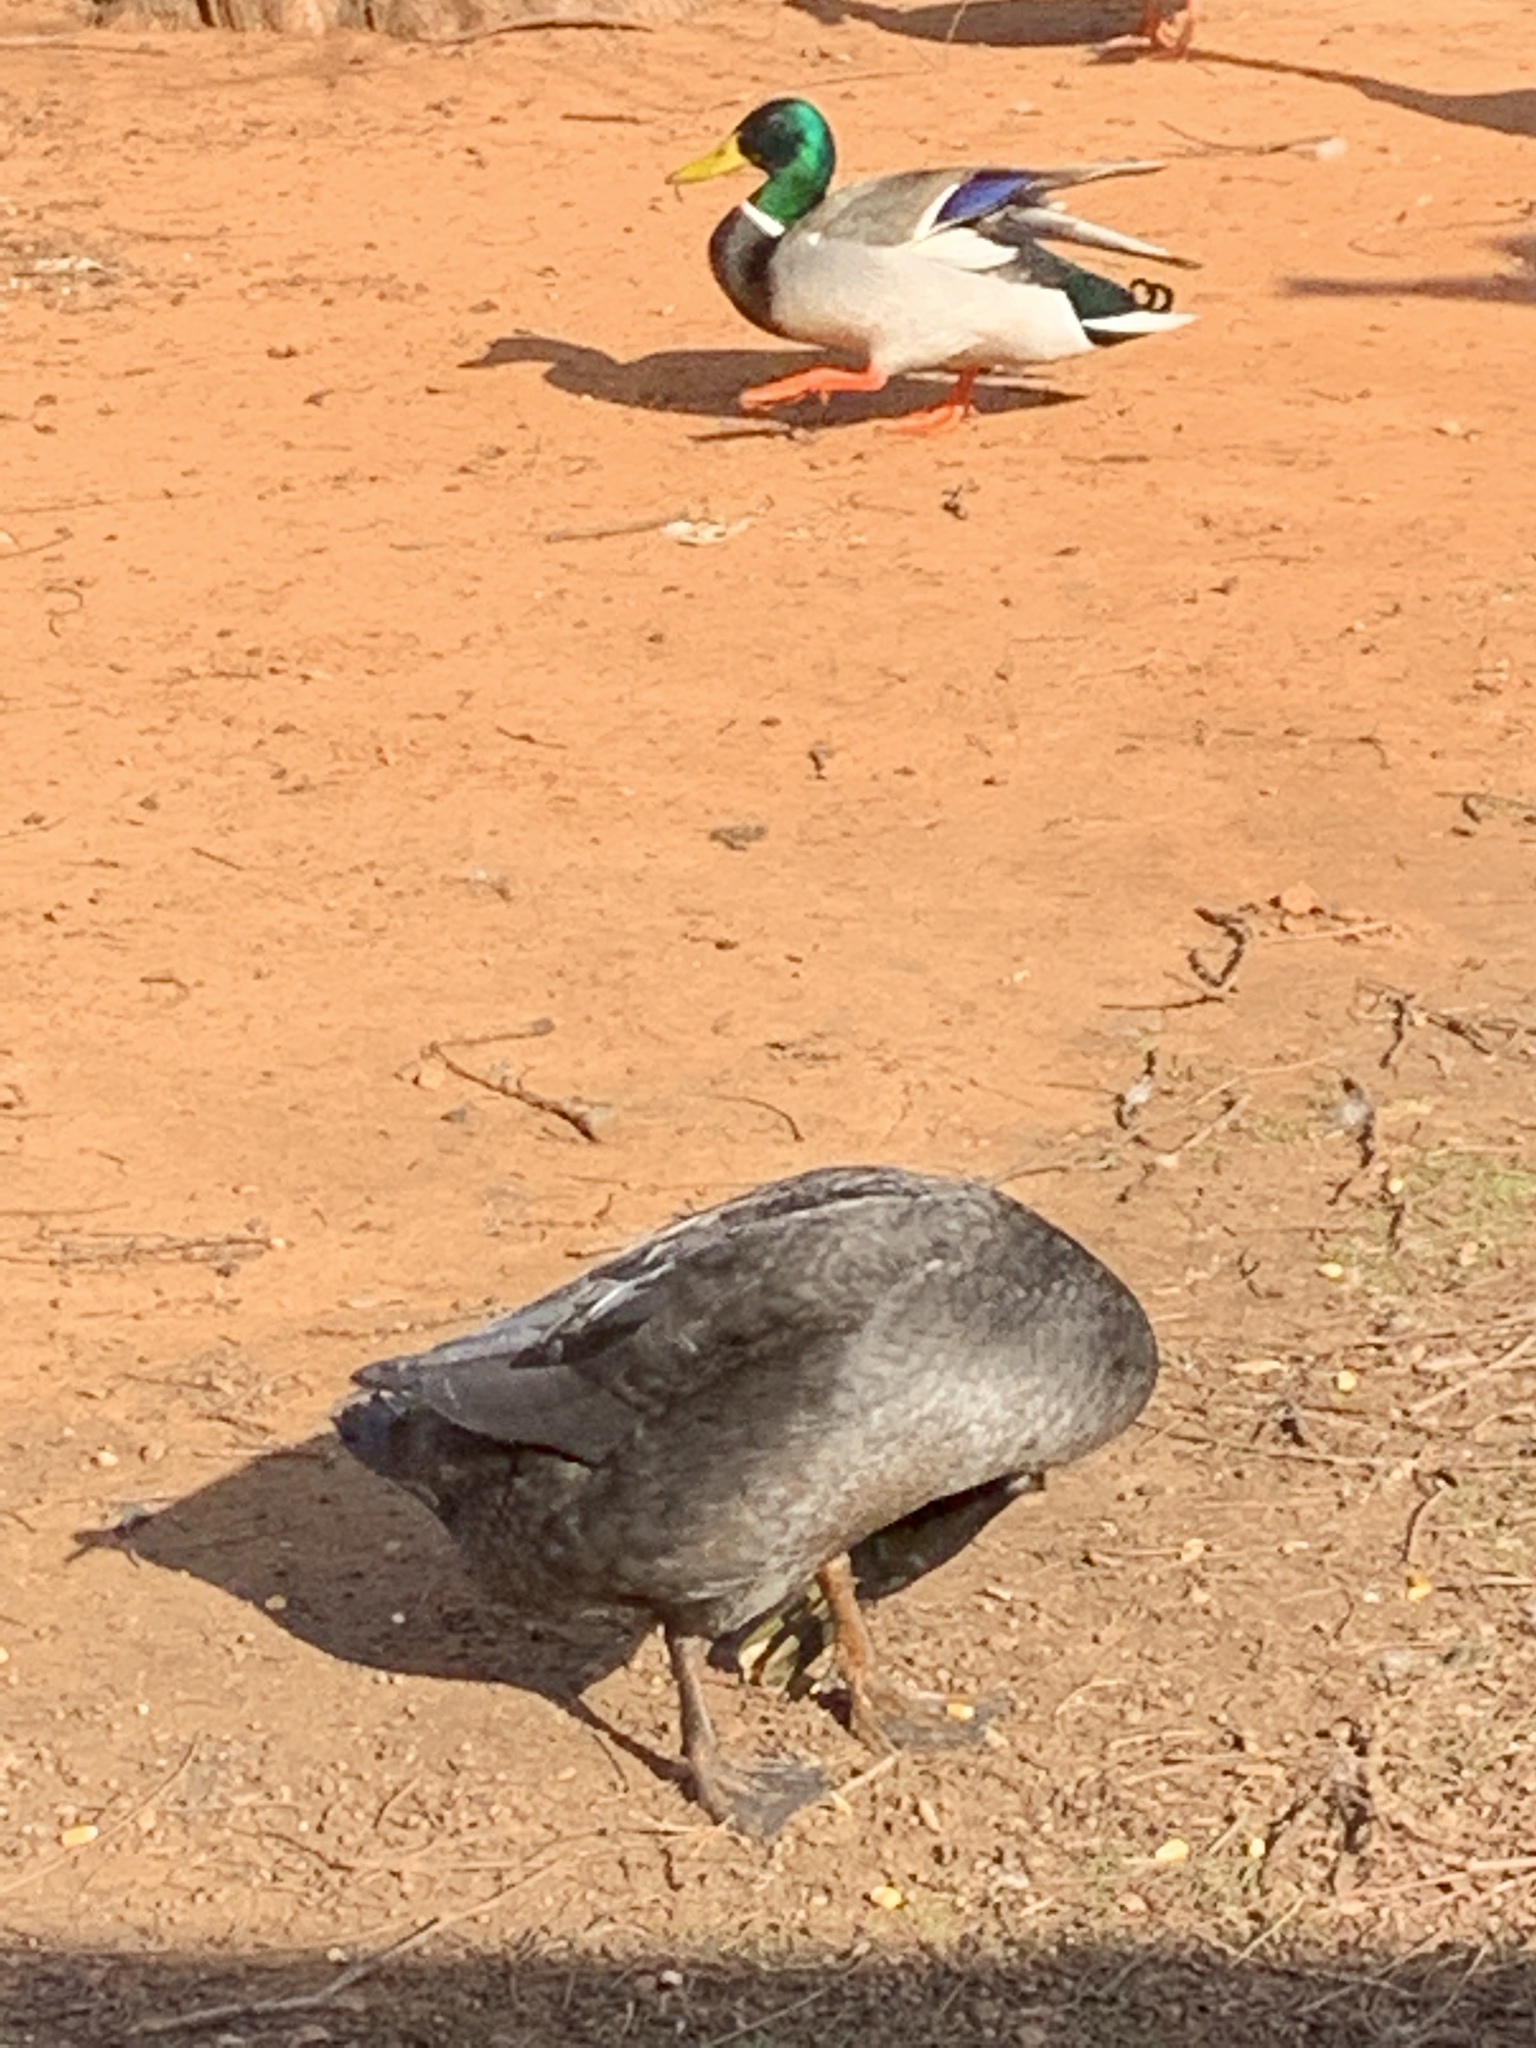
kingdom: Animalia
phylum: Chordata
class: Aves
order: Anseriformes
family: Anatidae
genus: Anas
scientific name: Anas platyrhynchos
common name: Mallard
